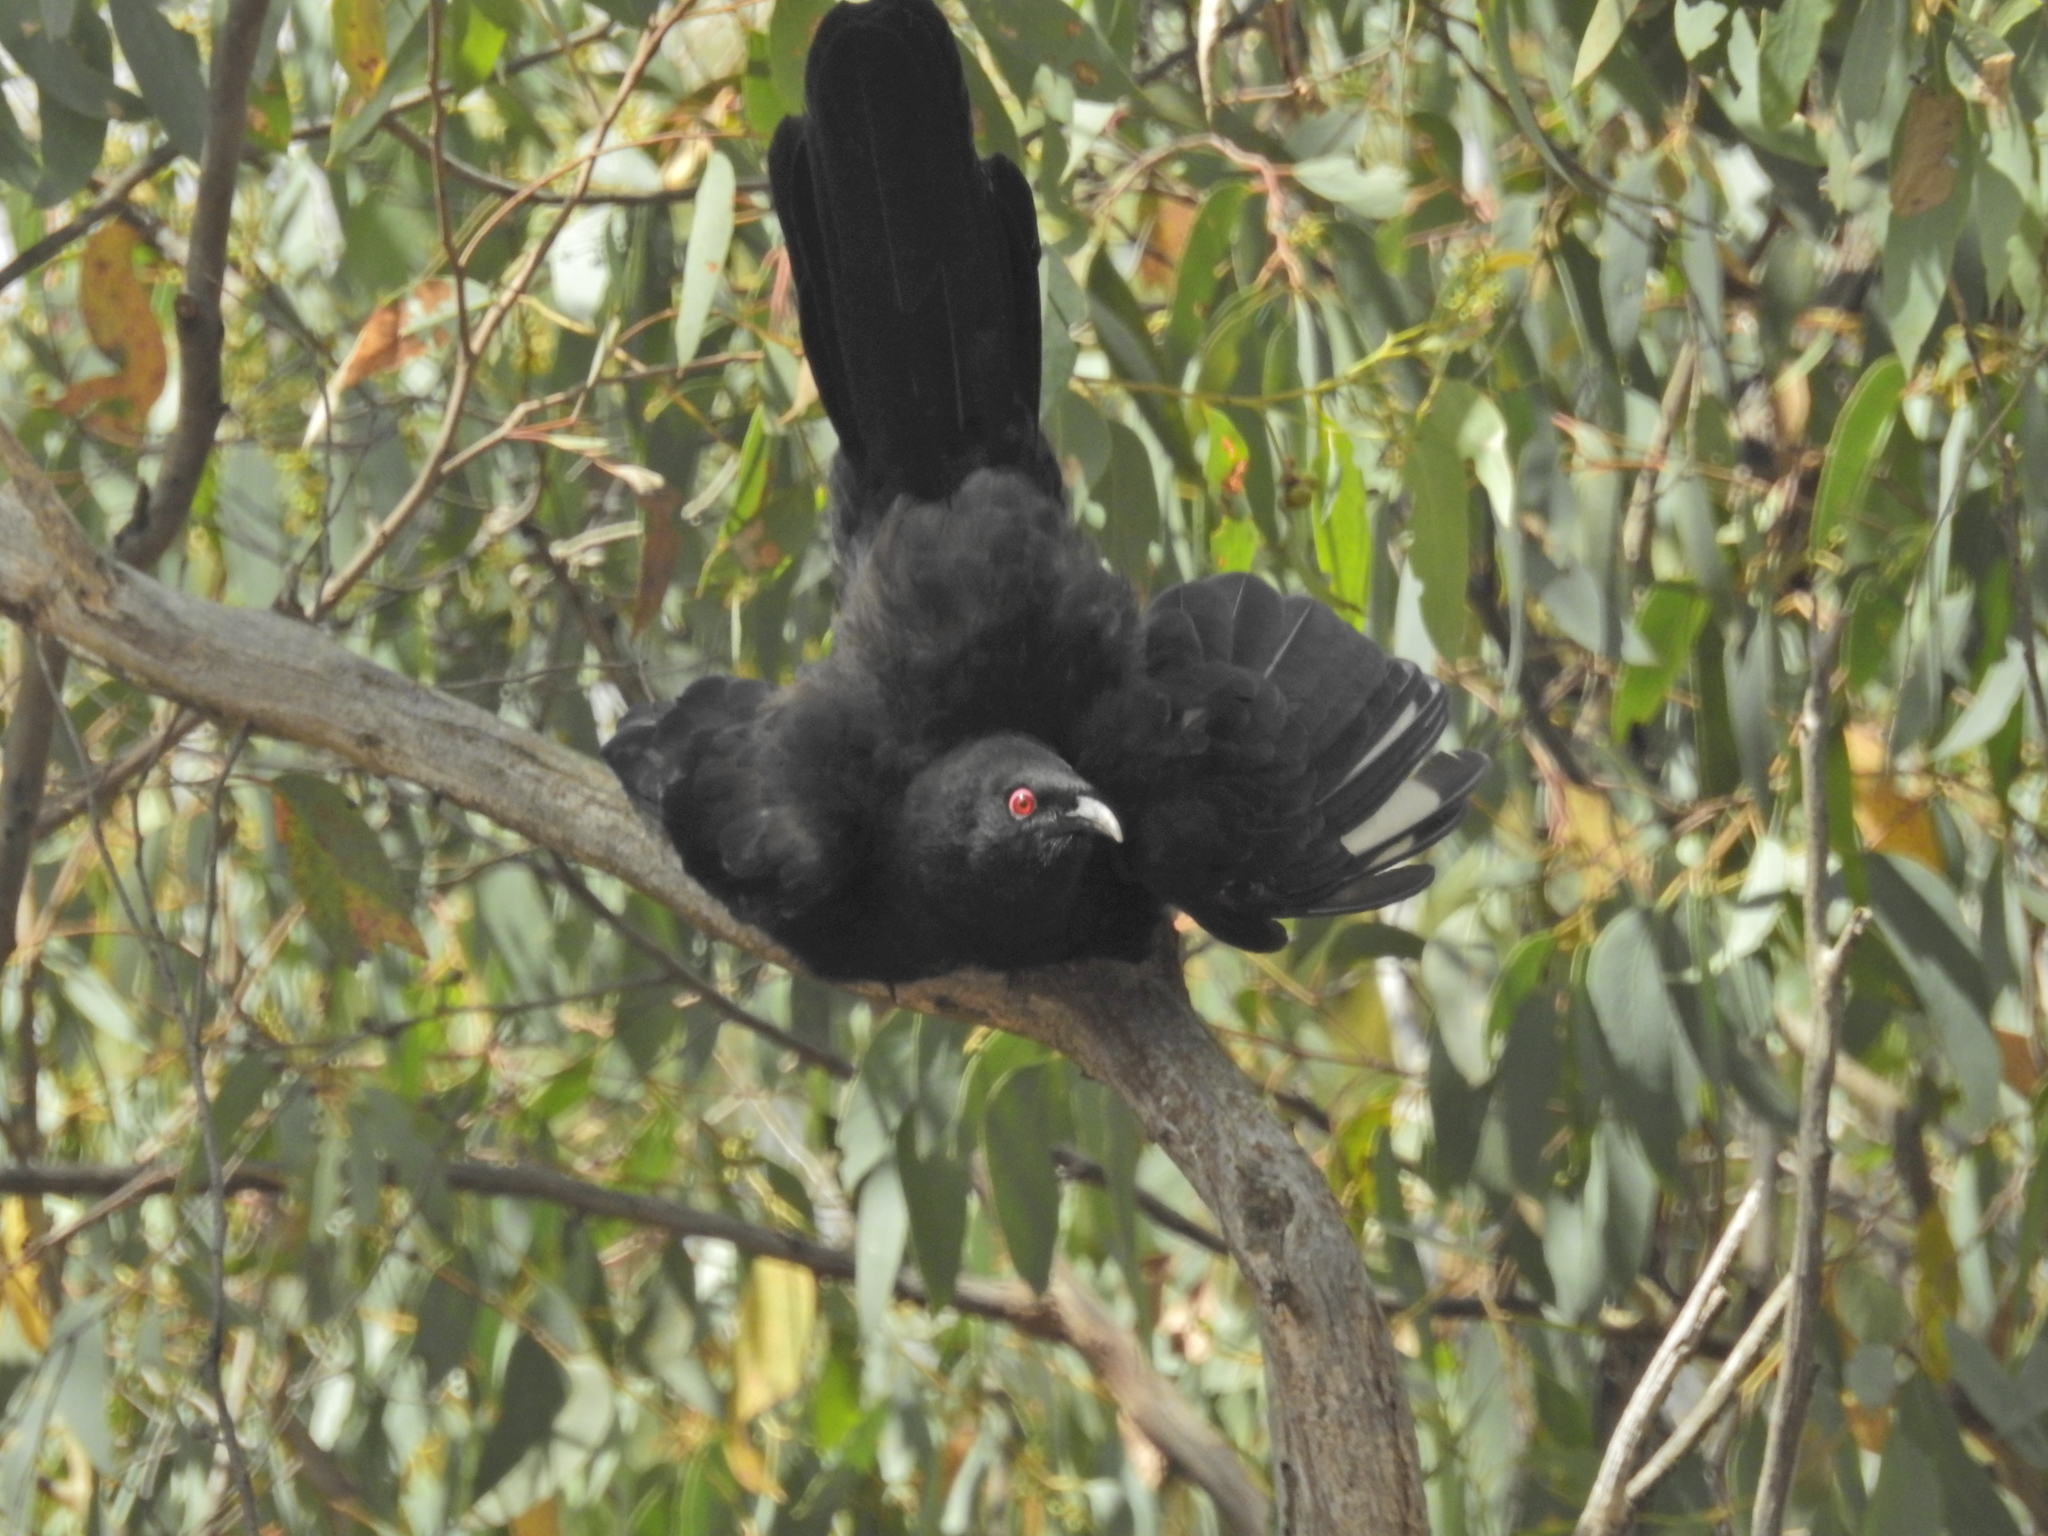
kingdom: Animalia
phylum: Chordata
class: Aves
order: Passeriformes
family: Corcoracidae
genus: Corcorax
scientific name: Corcorax melanoramphos
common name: White-winged chough
